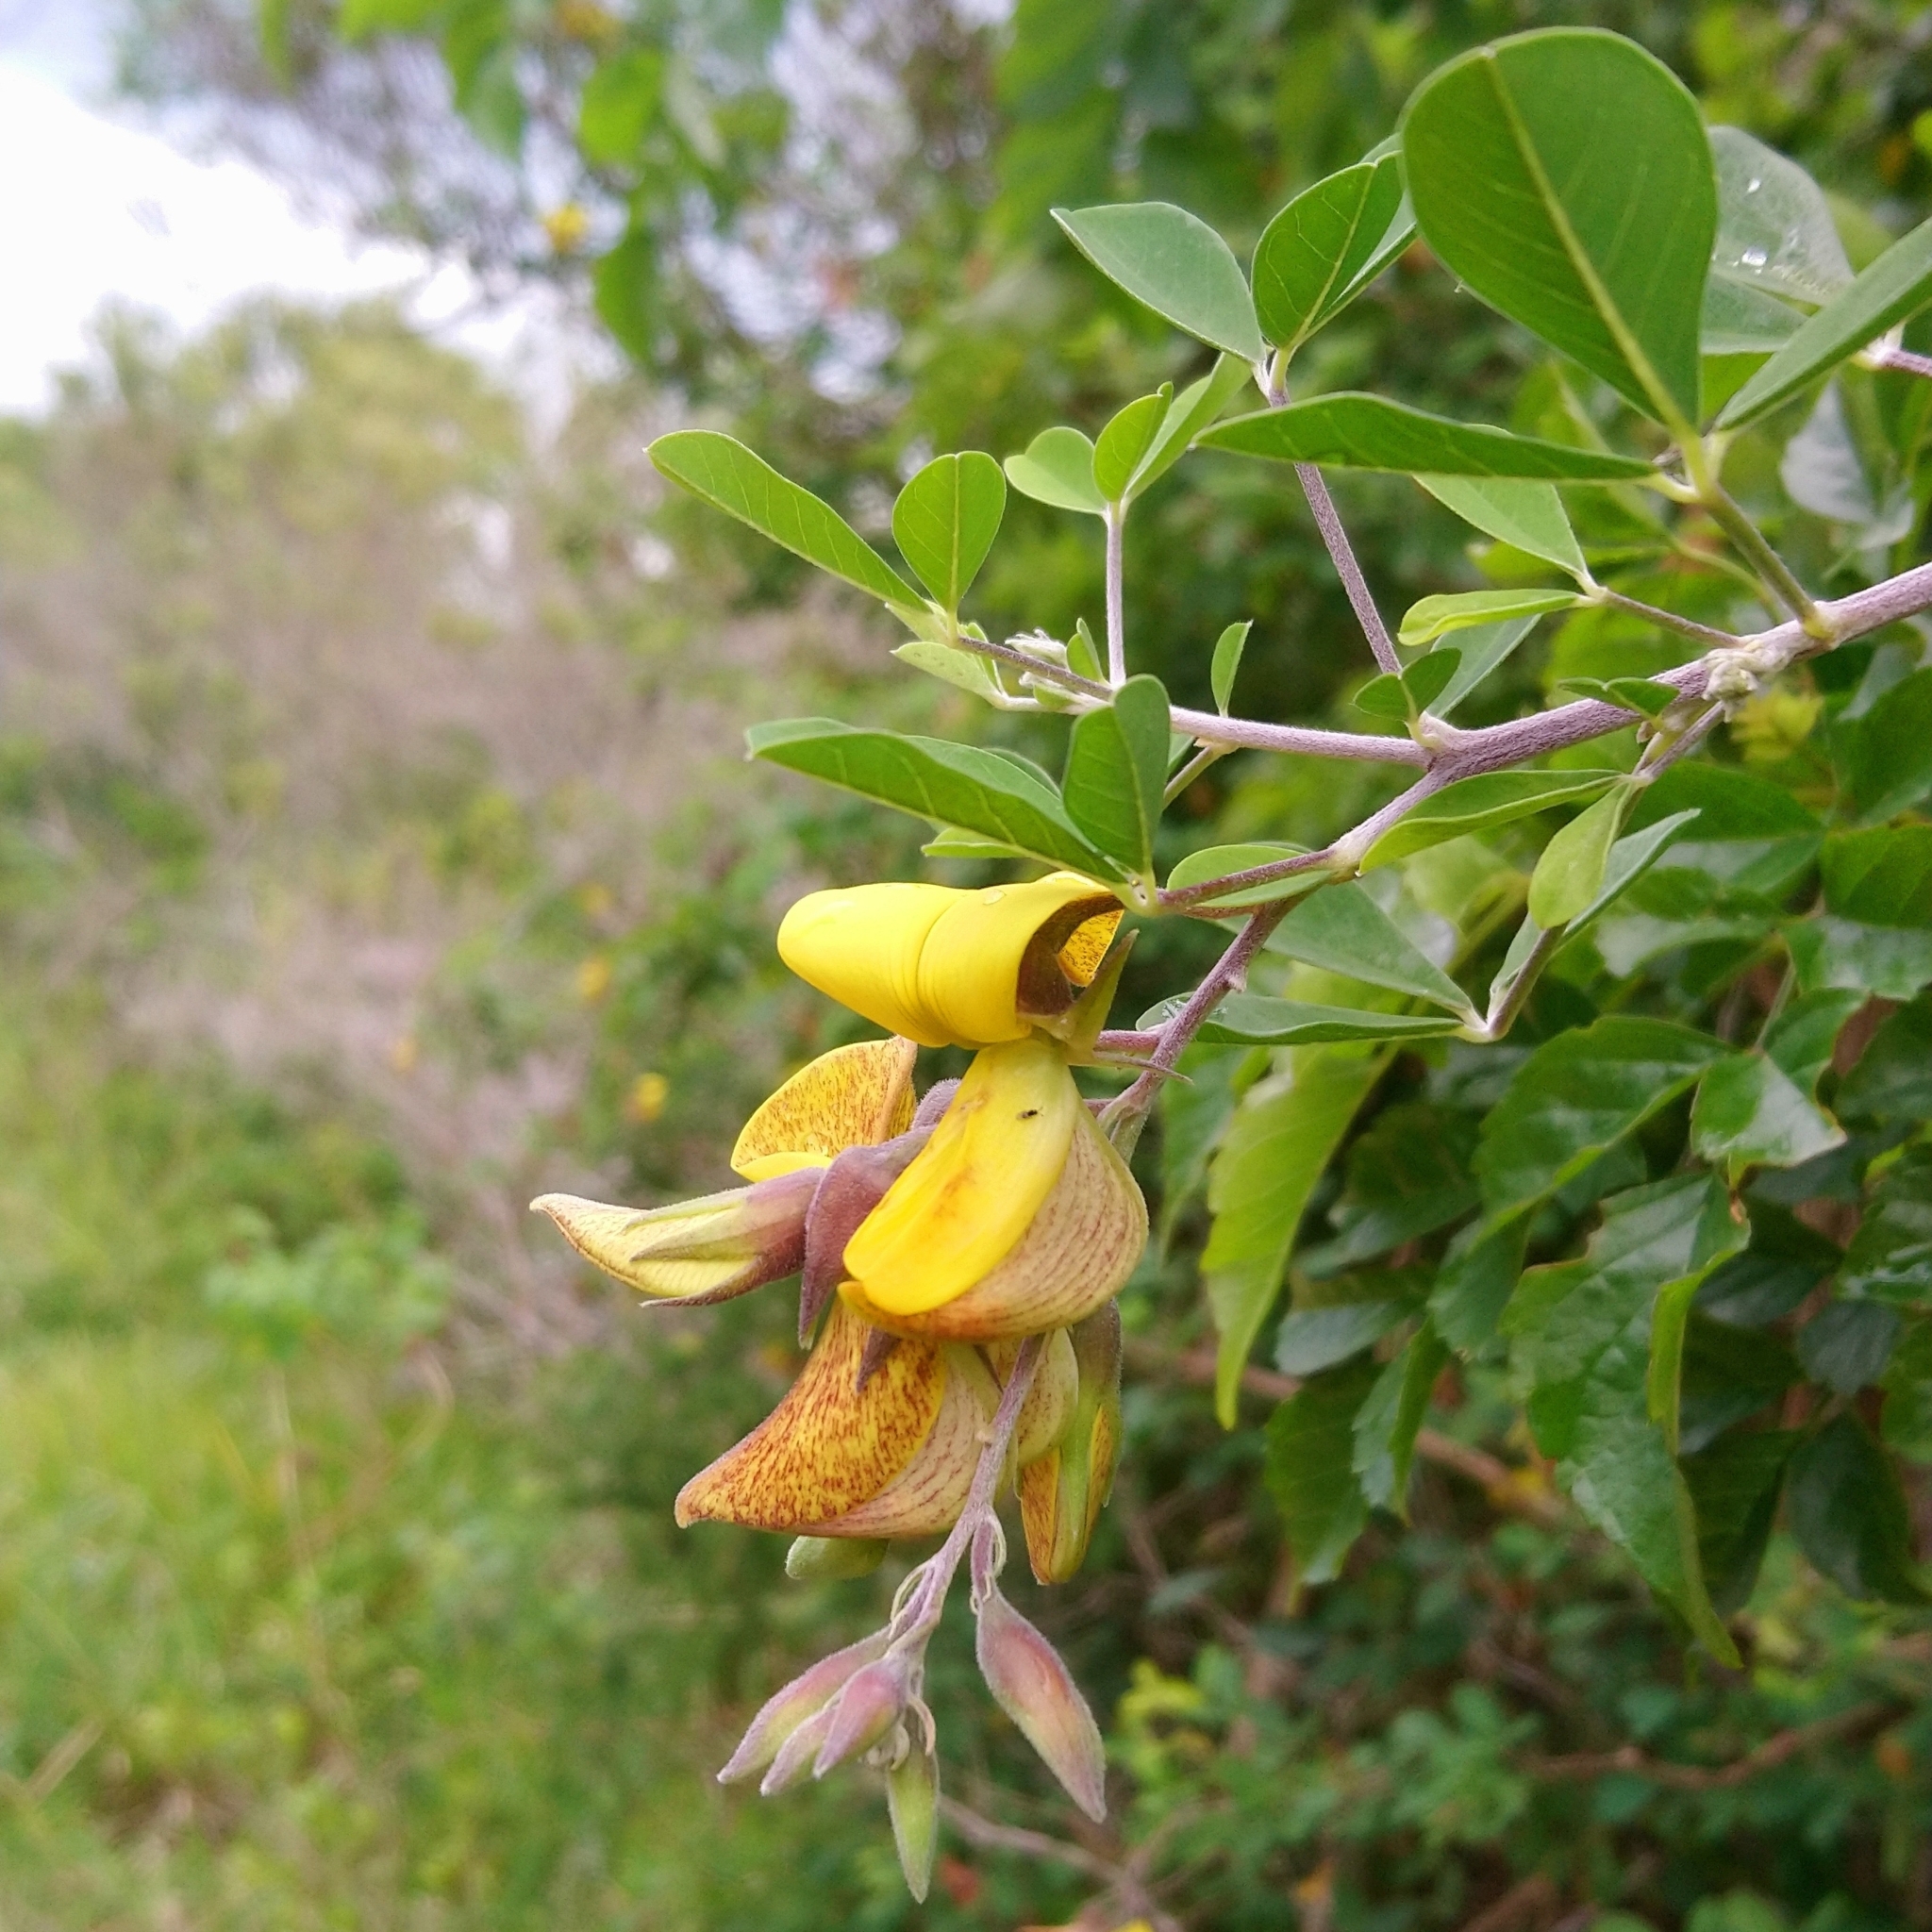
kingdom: Plantae
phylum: Tracheophyta
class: Magnoliopsida
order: Fabales
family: Fabaceae
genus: Crotalaria
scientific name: Crotalaria capensis
